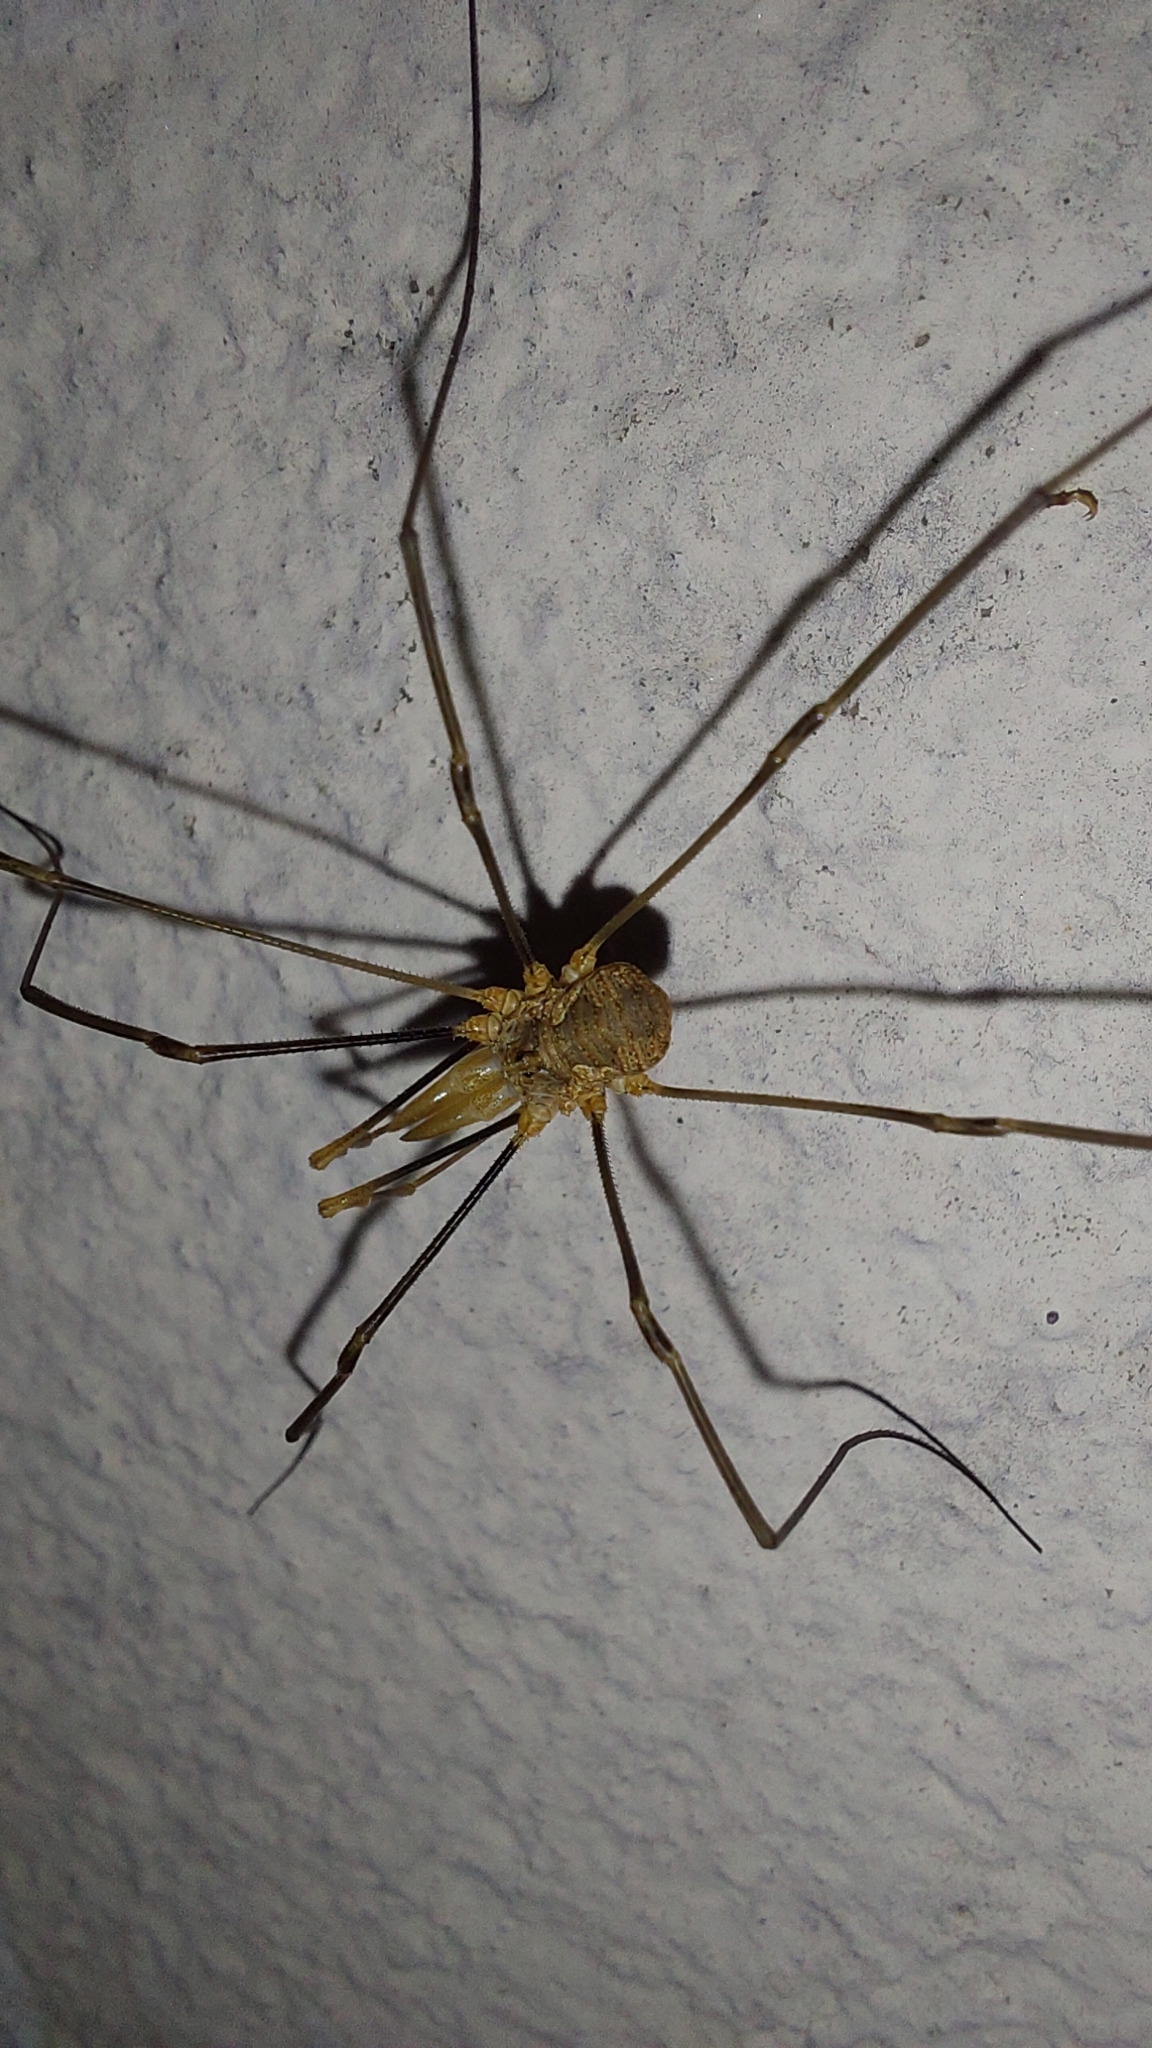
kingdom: Animalia
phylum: Arthropoda
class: Arachnida
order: Opiliones
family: Phalangiidae
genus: Phalangium
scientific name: Phalangium opilio
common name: Daddy longleg
